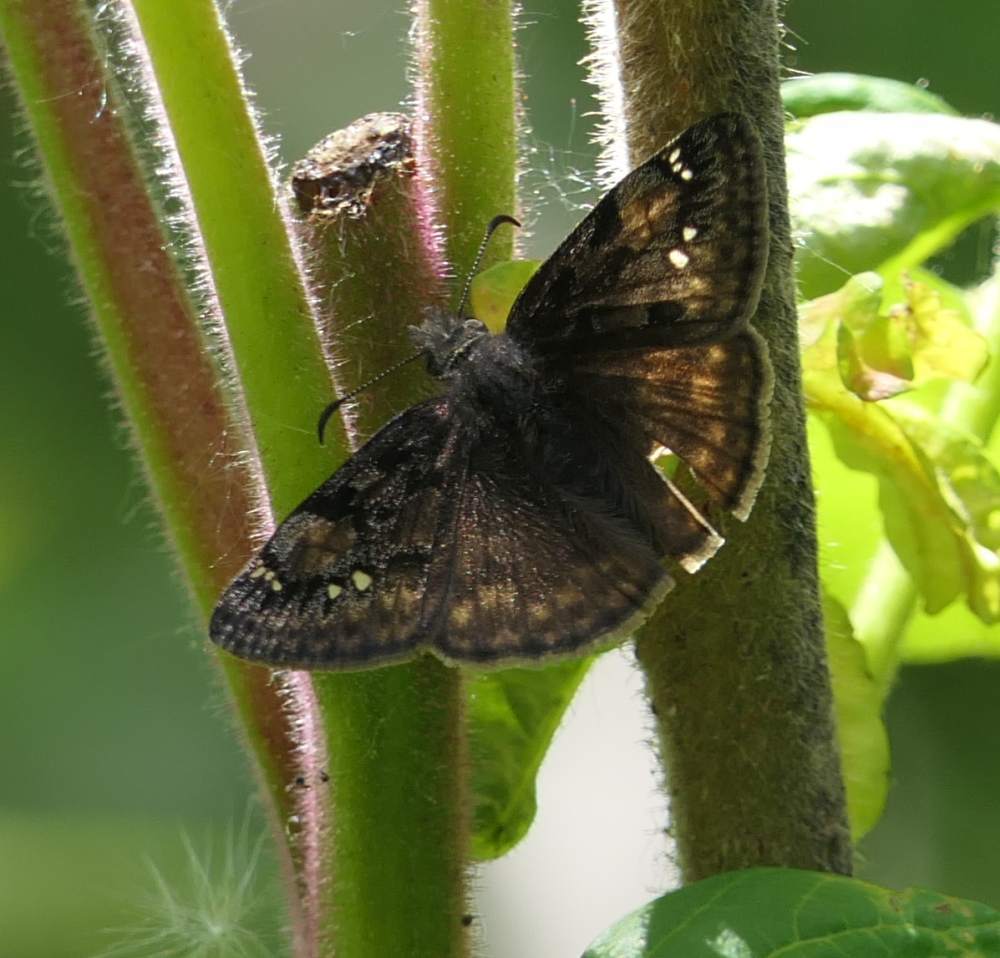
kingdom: Animalia
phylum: Arthropoda
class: Insecta
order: Lepidoptera
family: Hesperiidae
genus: Erynnis
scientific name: Erynnis juvenalis
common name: Juvenal's duskywing
